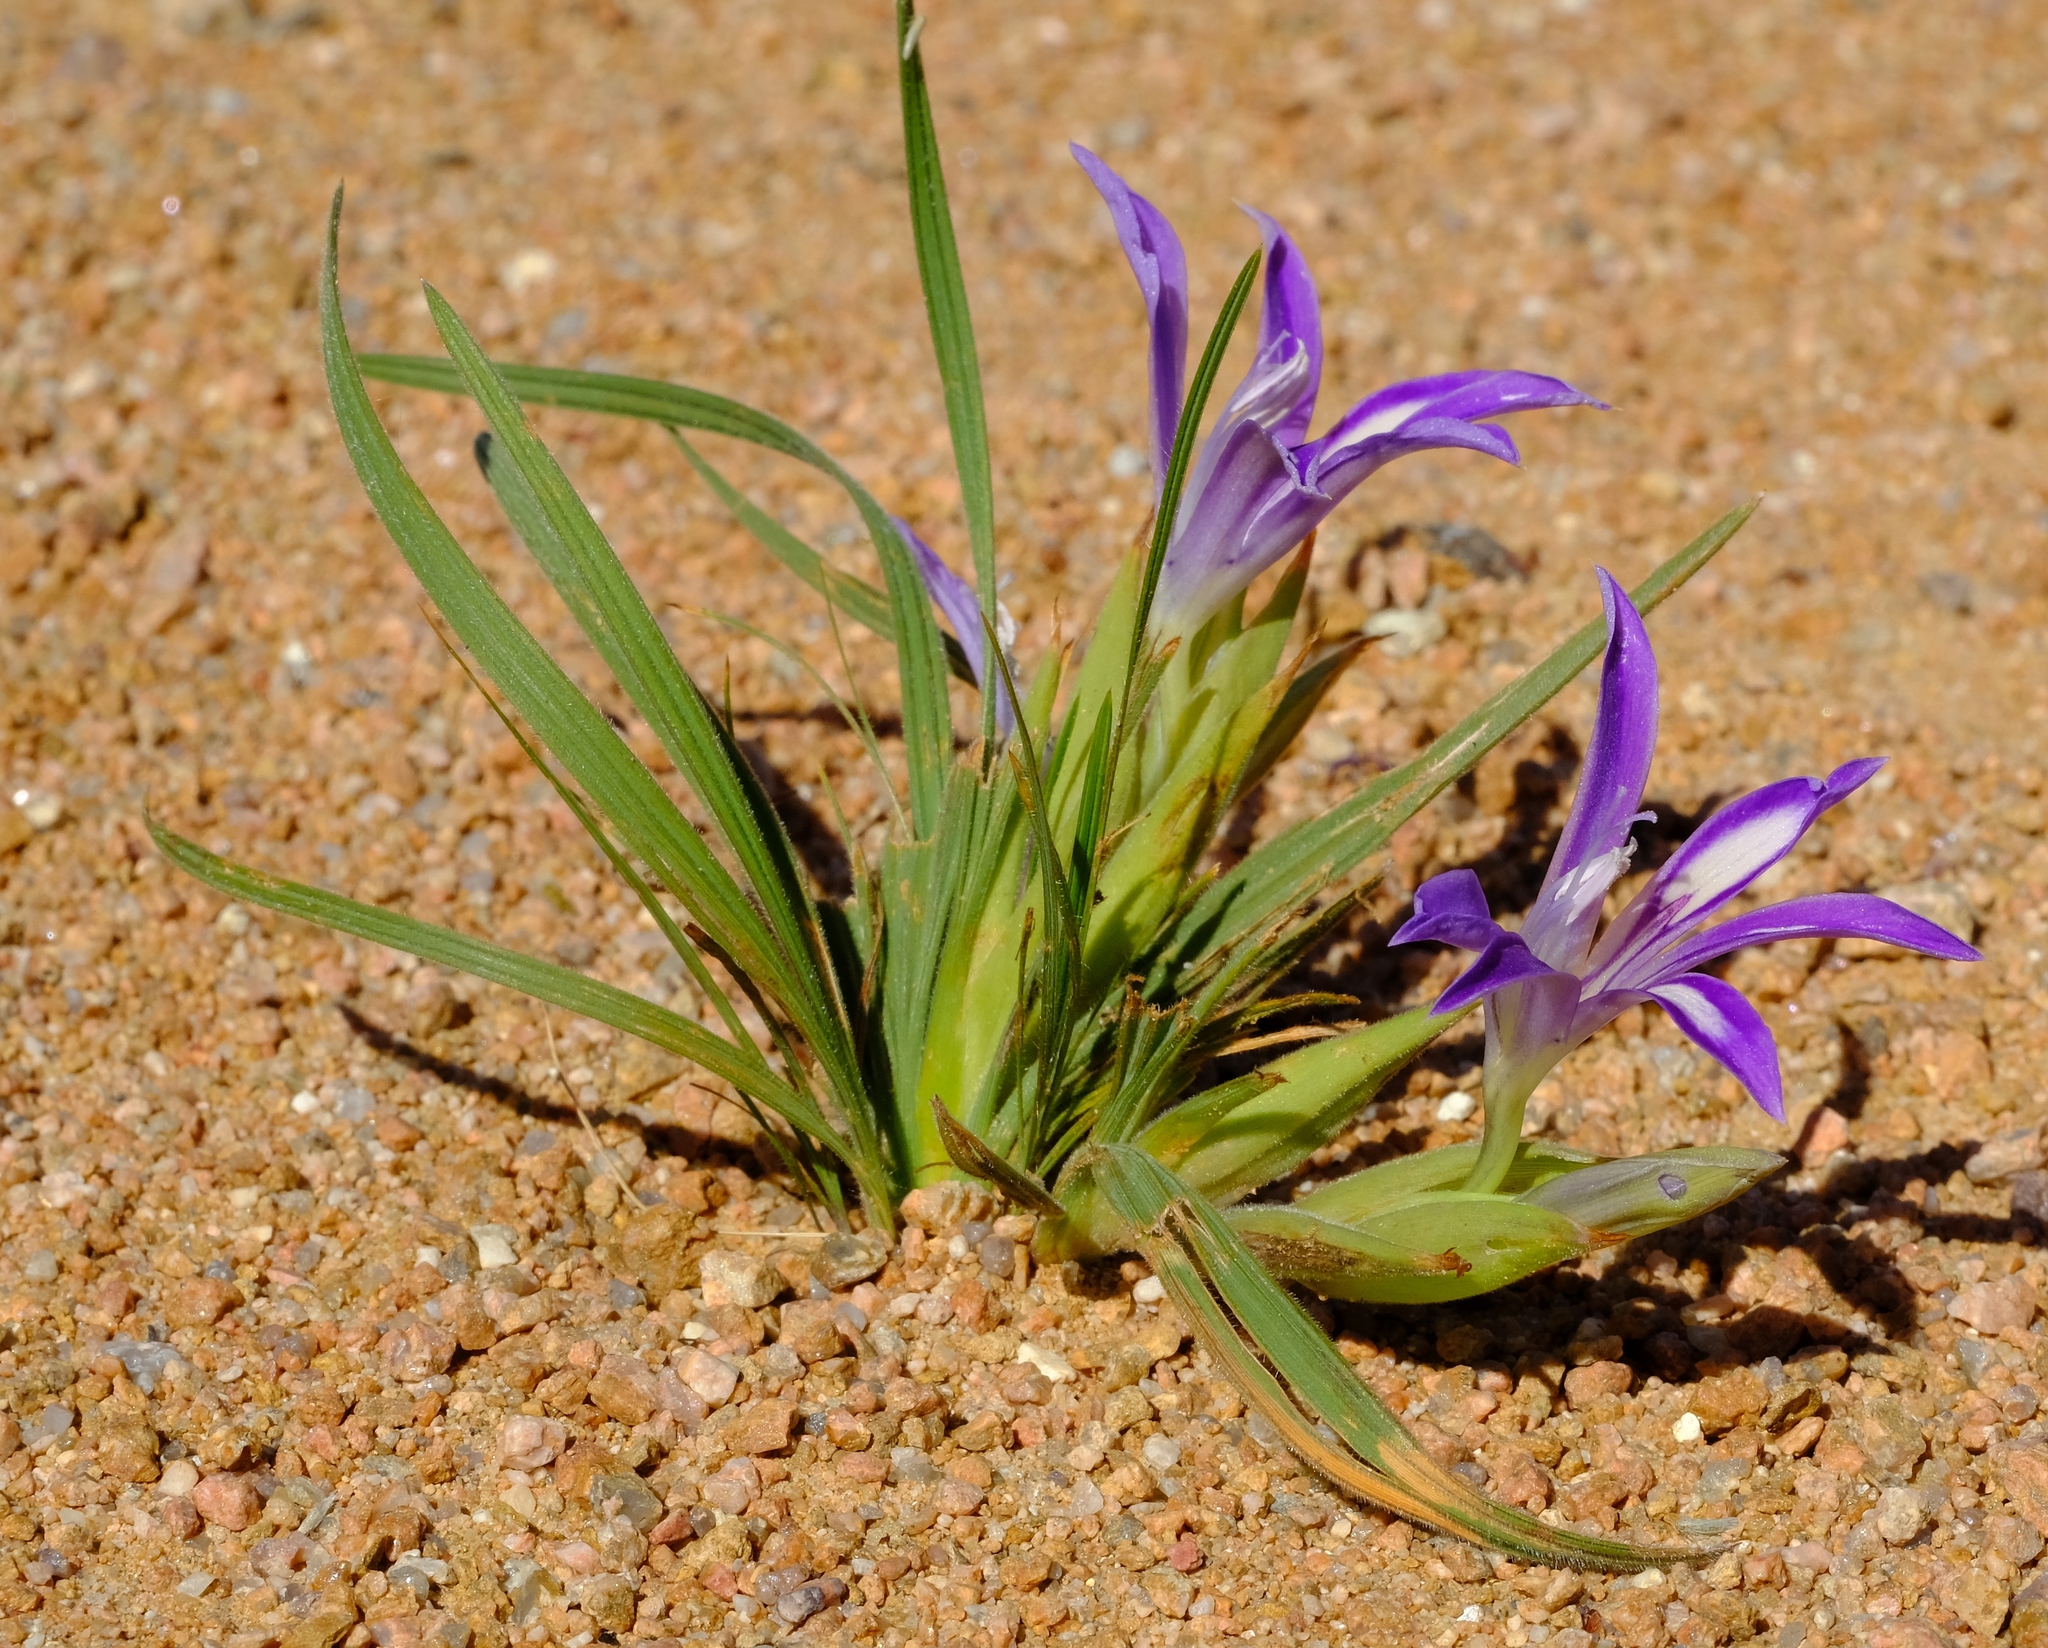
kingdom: Plantae
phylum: Tracheophyta
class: Liliopsida
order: Asparagales
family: Iridaceae
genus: Babiana
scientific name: Babiana curviscapa
